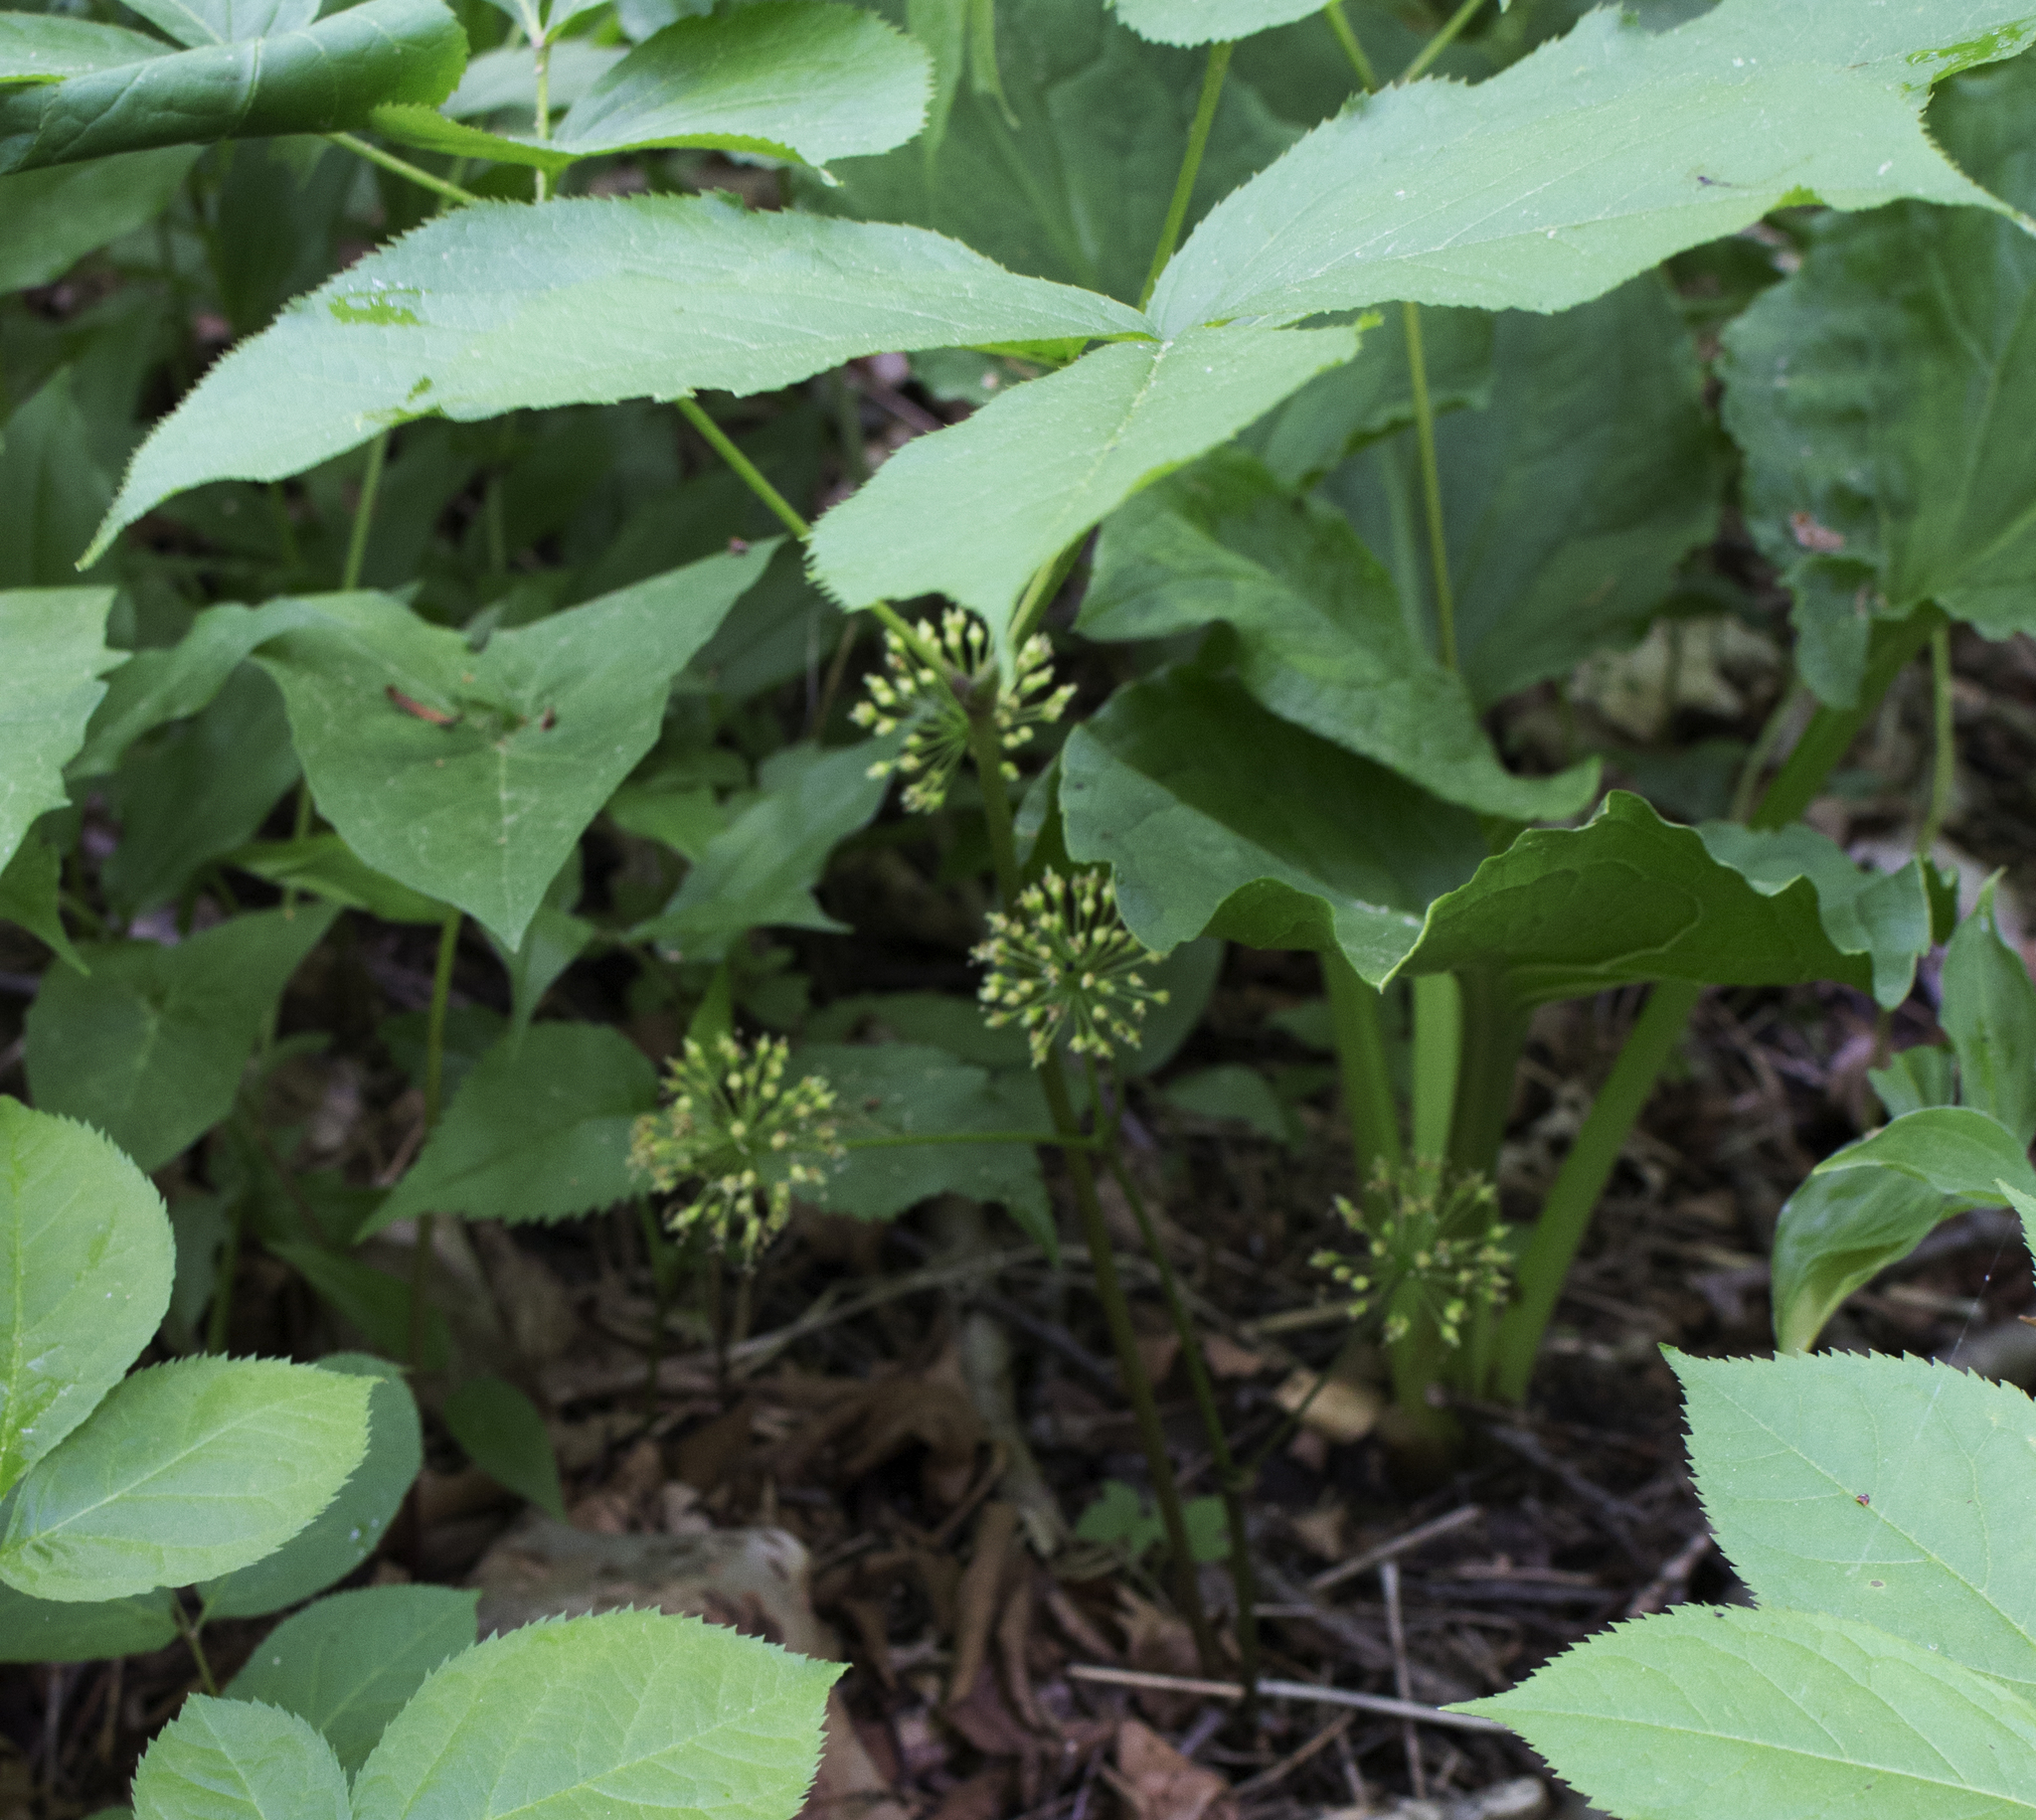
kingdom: Plantae
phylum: Tracheophyta
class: Magnoliopsida
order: Apiales
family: Araliaceae
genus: Aralia
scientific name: Aralia nudicaulis
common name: Wild sarsaparilla
